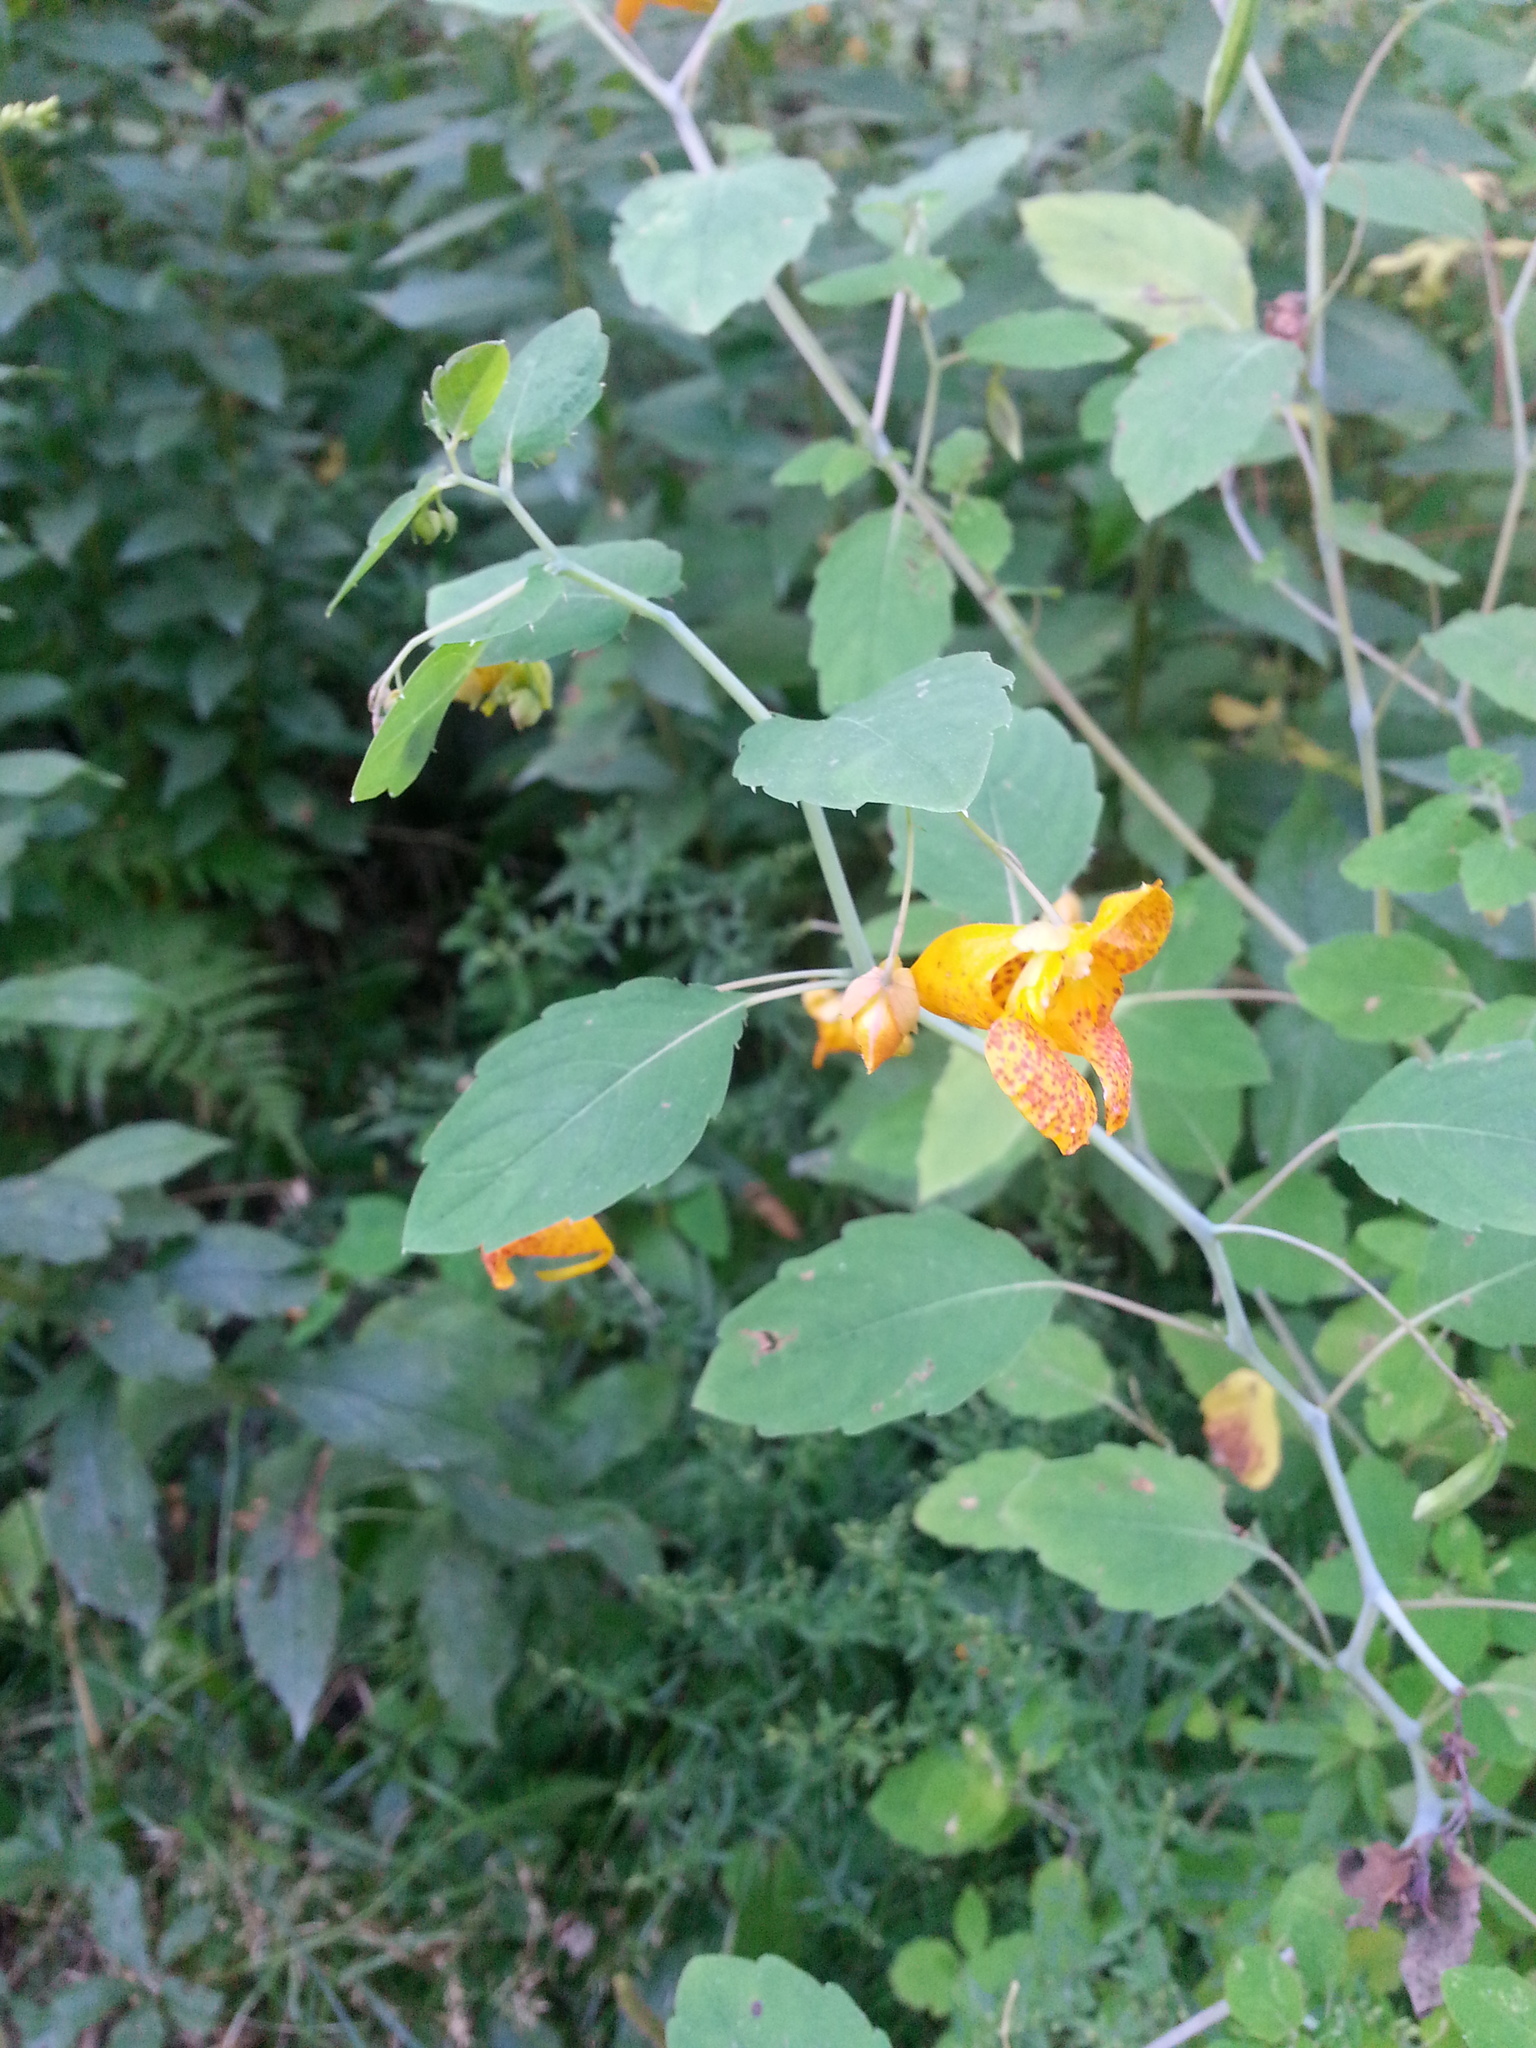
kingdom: Plantae
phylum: Tracheophyta
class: Magnoliopsida
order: Ericales
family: Balsaminaceae
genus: Impatiens
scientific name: Impatiens capensis
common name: Orange balsam
